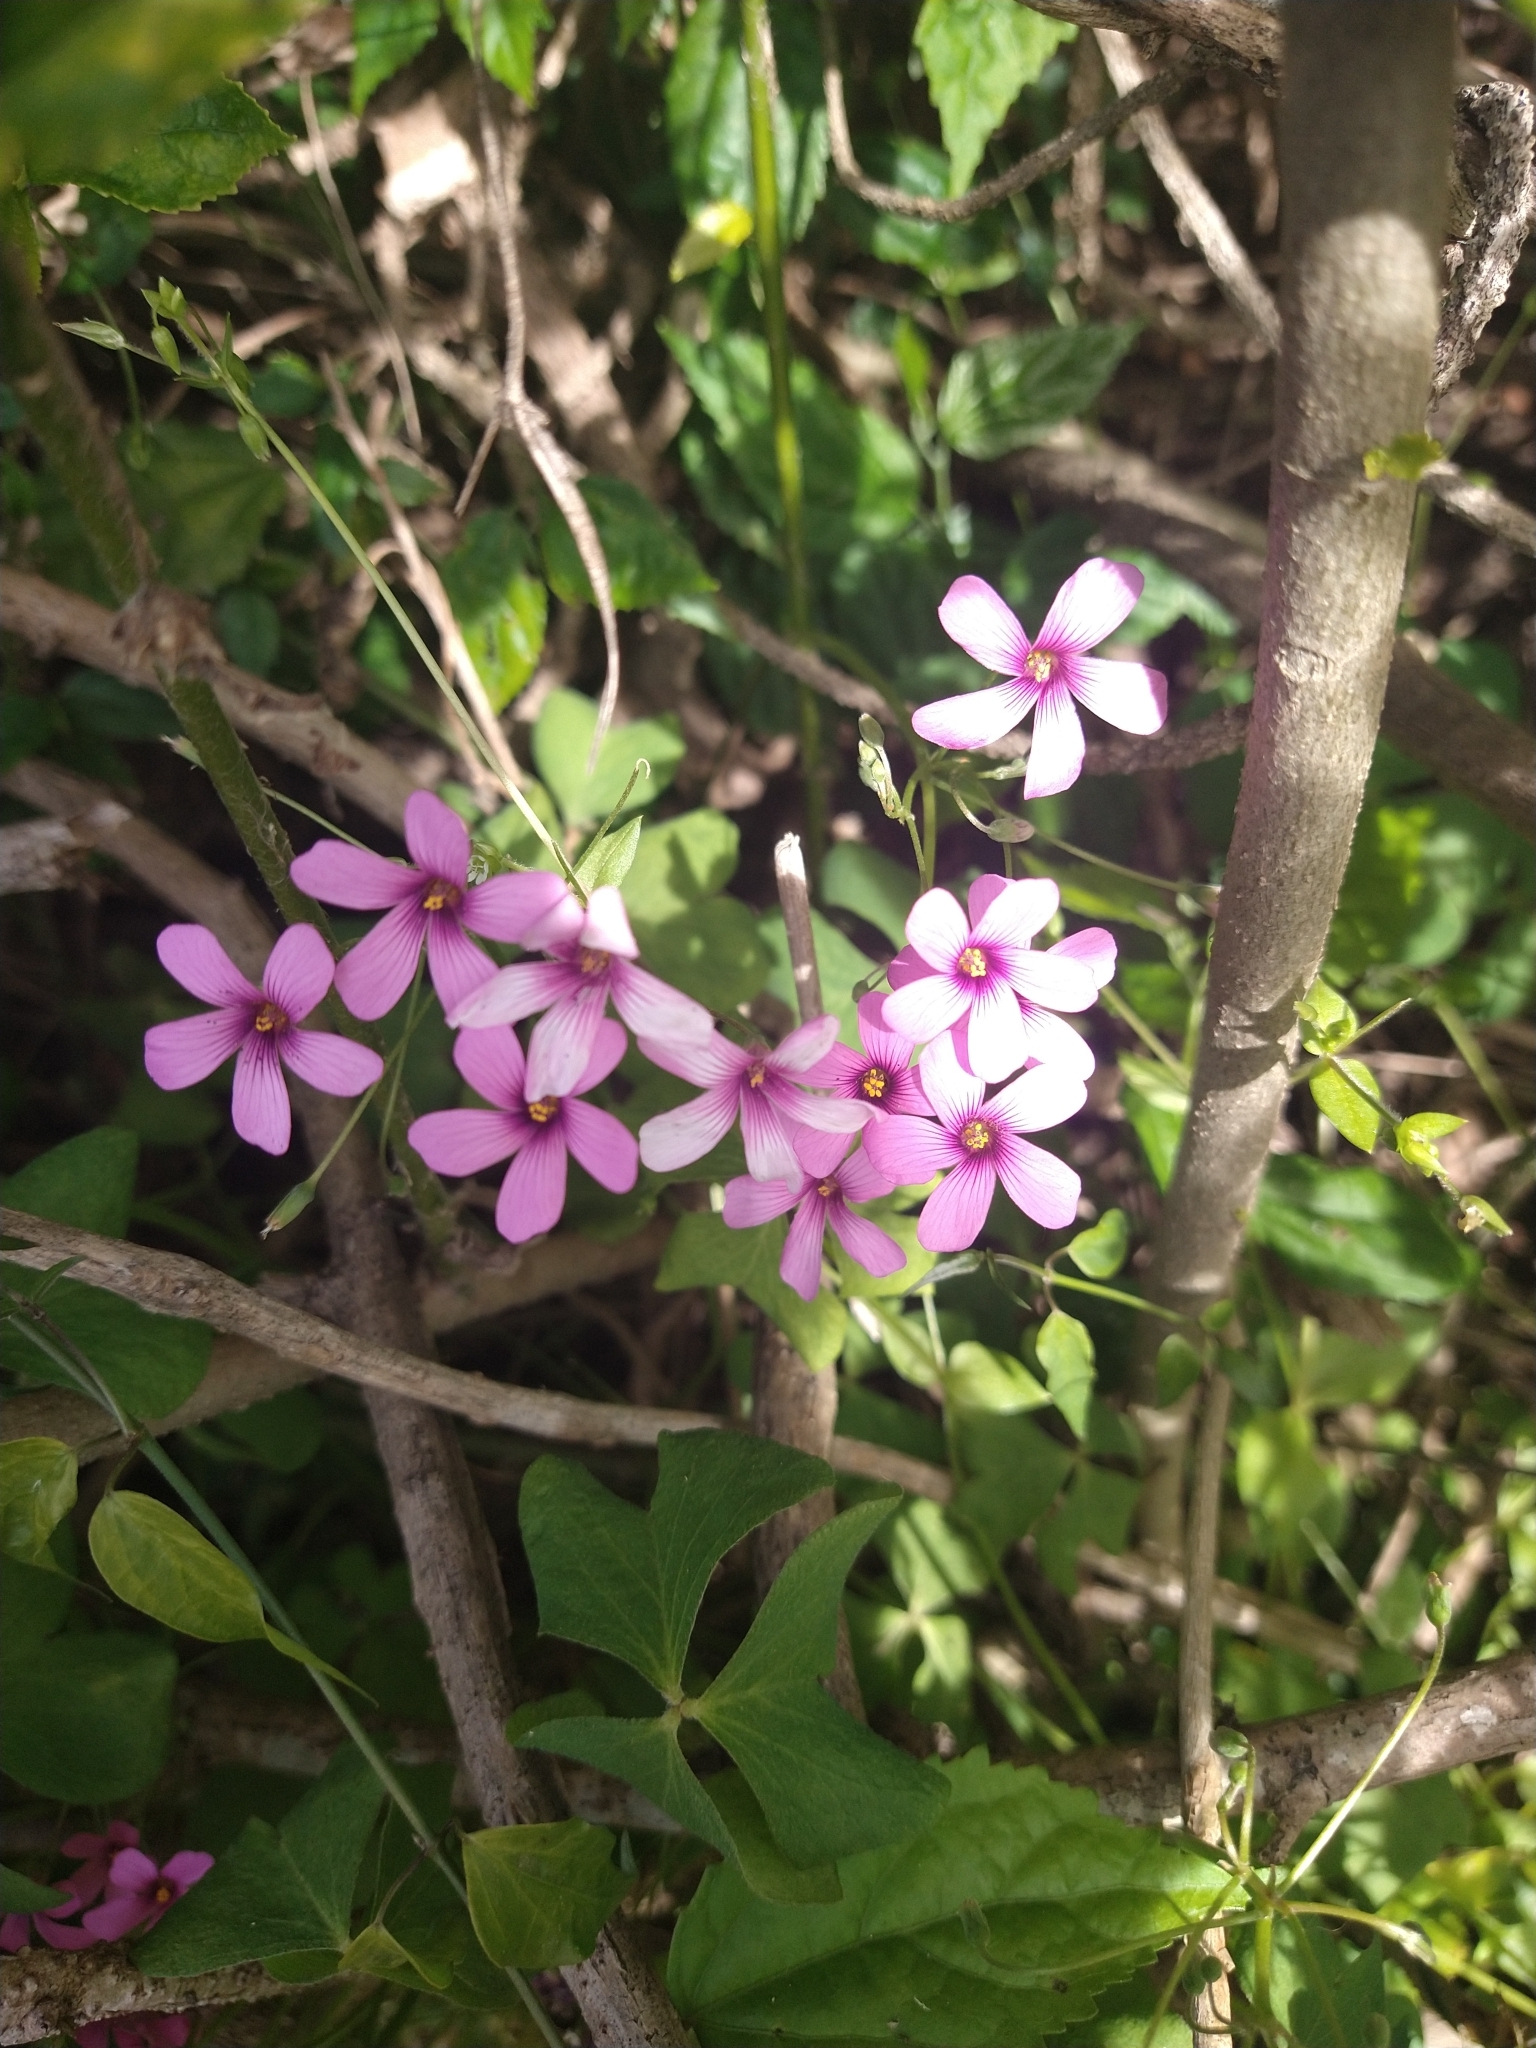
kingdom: Plantae
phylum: Tracheophyta
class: Magnoliopsida
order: Oxalidales
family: Oxalidaceae
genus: Oxalis
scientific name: Oxalis debilis
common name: Large-flowered pink-sorrel
